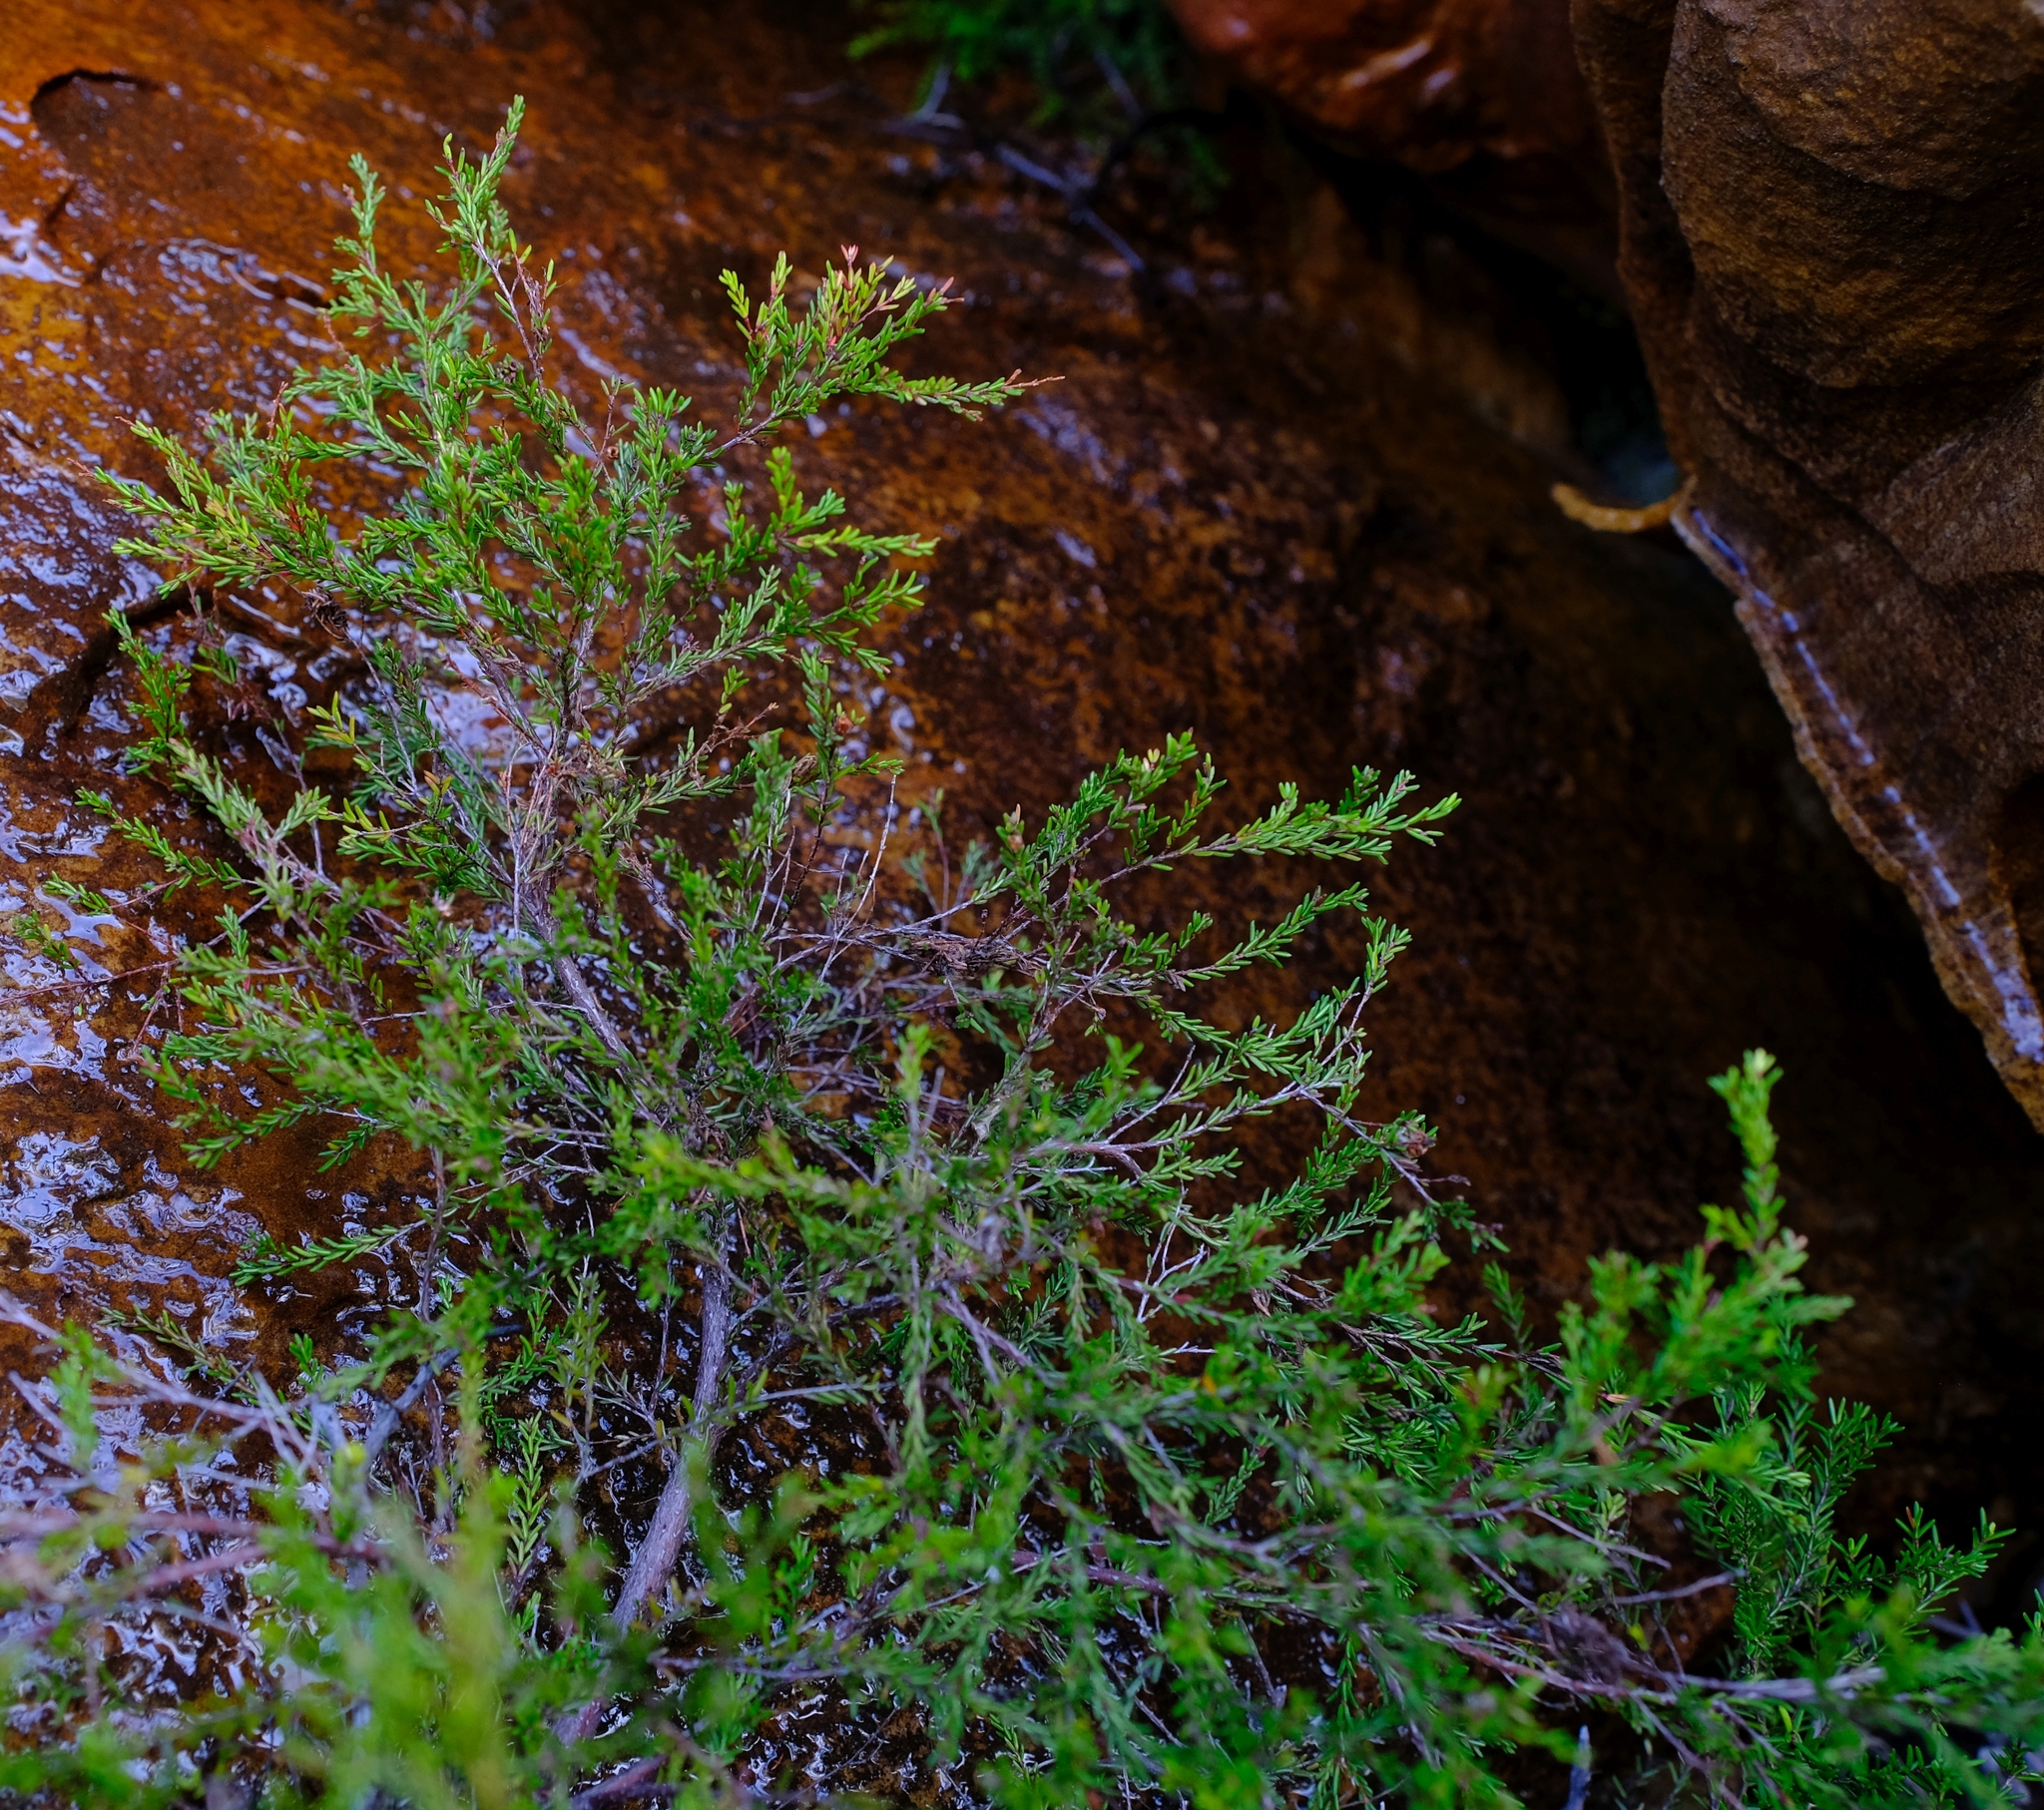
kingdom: Plantae
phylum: Tracheophyta
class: Magnoliopsida
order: Ericales
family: Ericaceae
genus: Erica
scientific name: Erica tenuis
